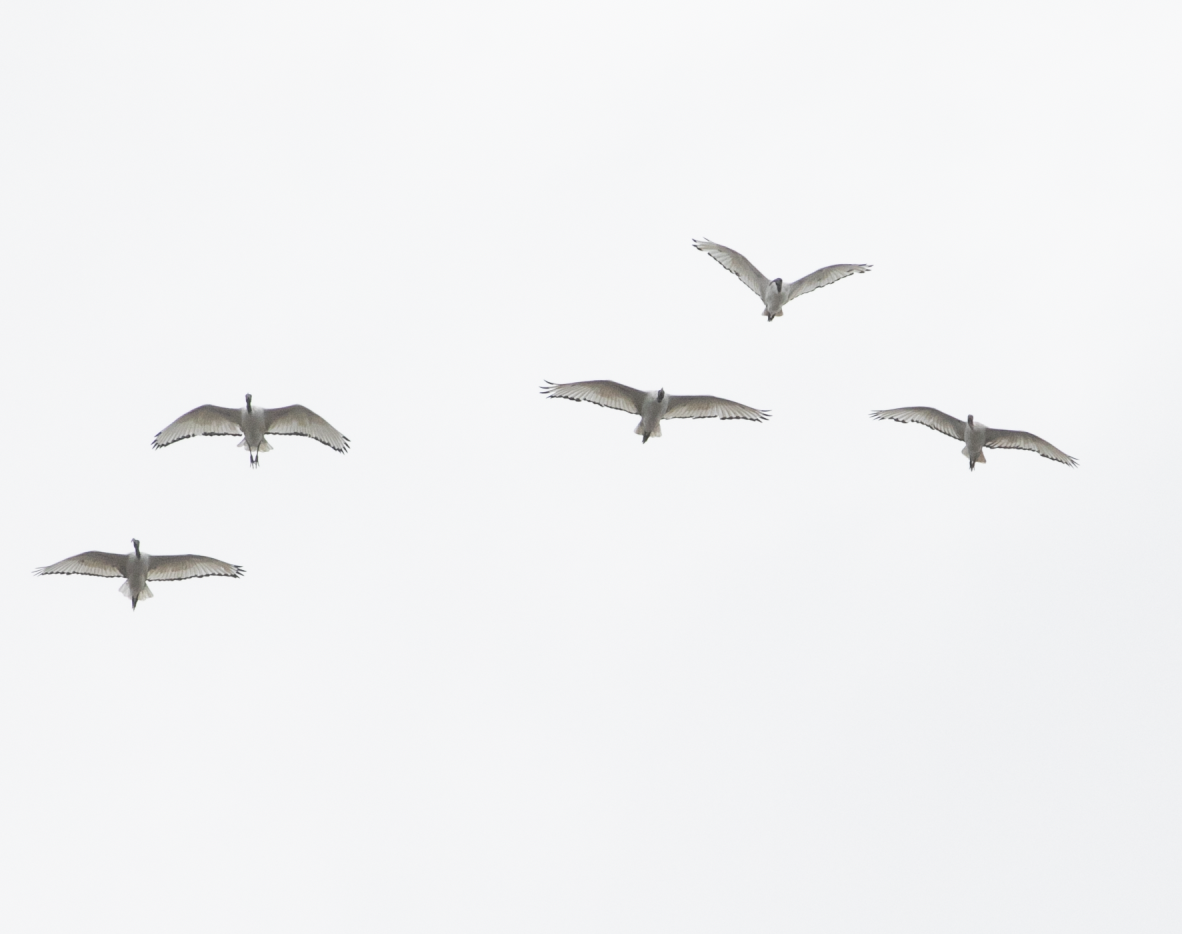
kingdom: Animalia
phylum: Chordata
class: Aves
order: Pelecaniformes
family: Threskiornithidae
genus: Threskiornis
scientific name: Threskiornis aethiopicus
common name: Sacred ibis
